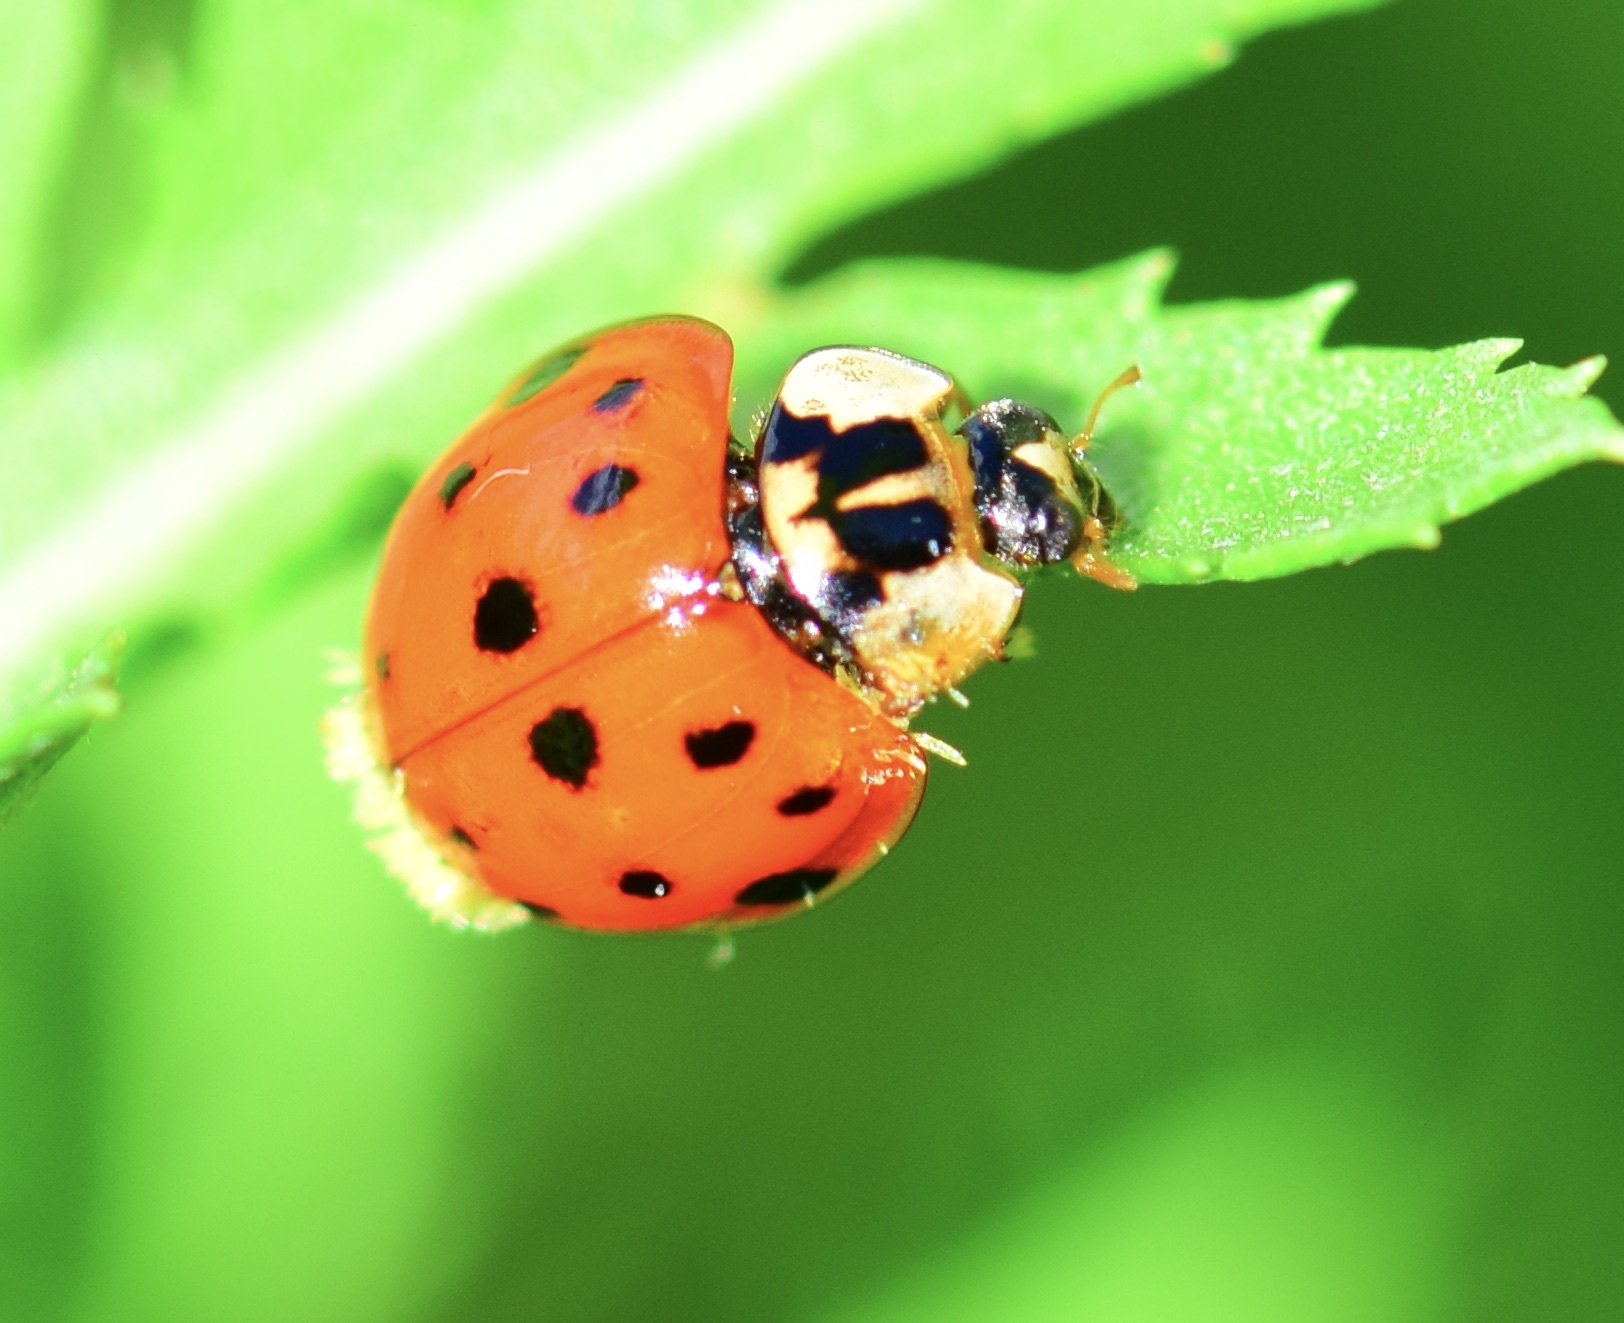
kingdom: Animalia
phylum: Arthropoda
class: Insecta
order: Coleoptera
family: Coccinellidae
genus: Harmonia
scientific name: Harmonia axyridis
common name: Harlequin ladybird
